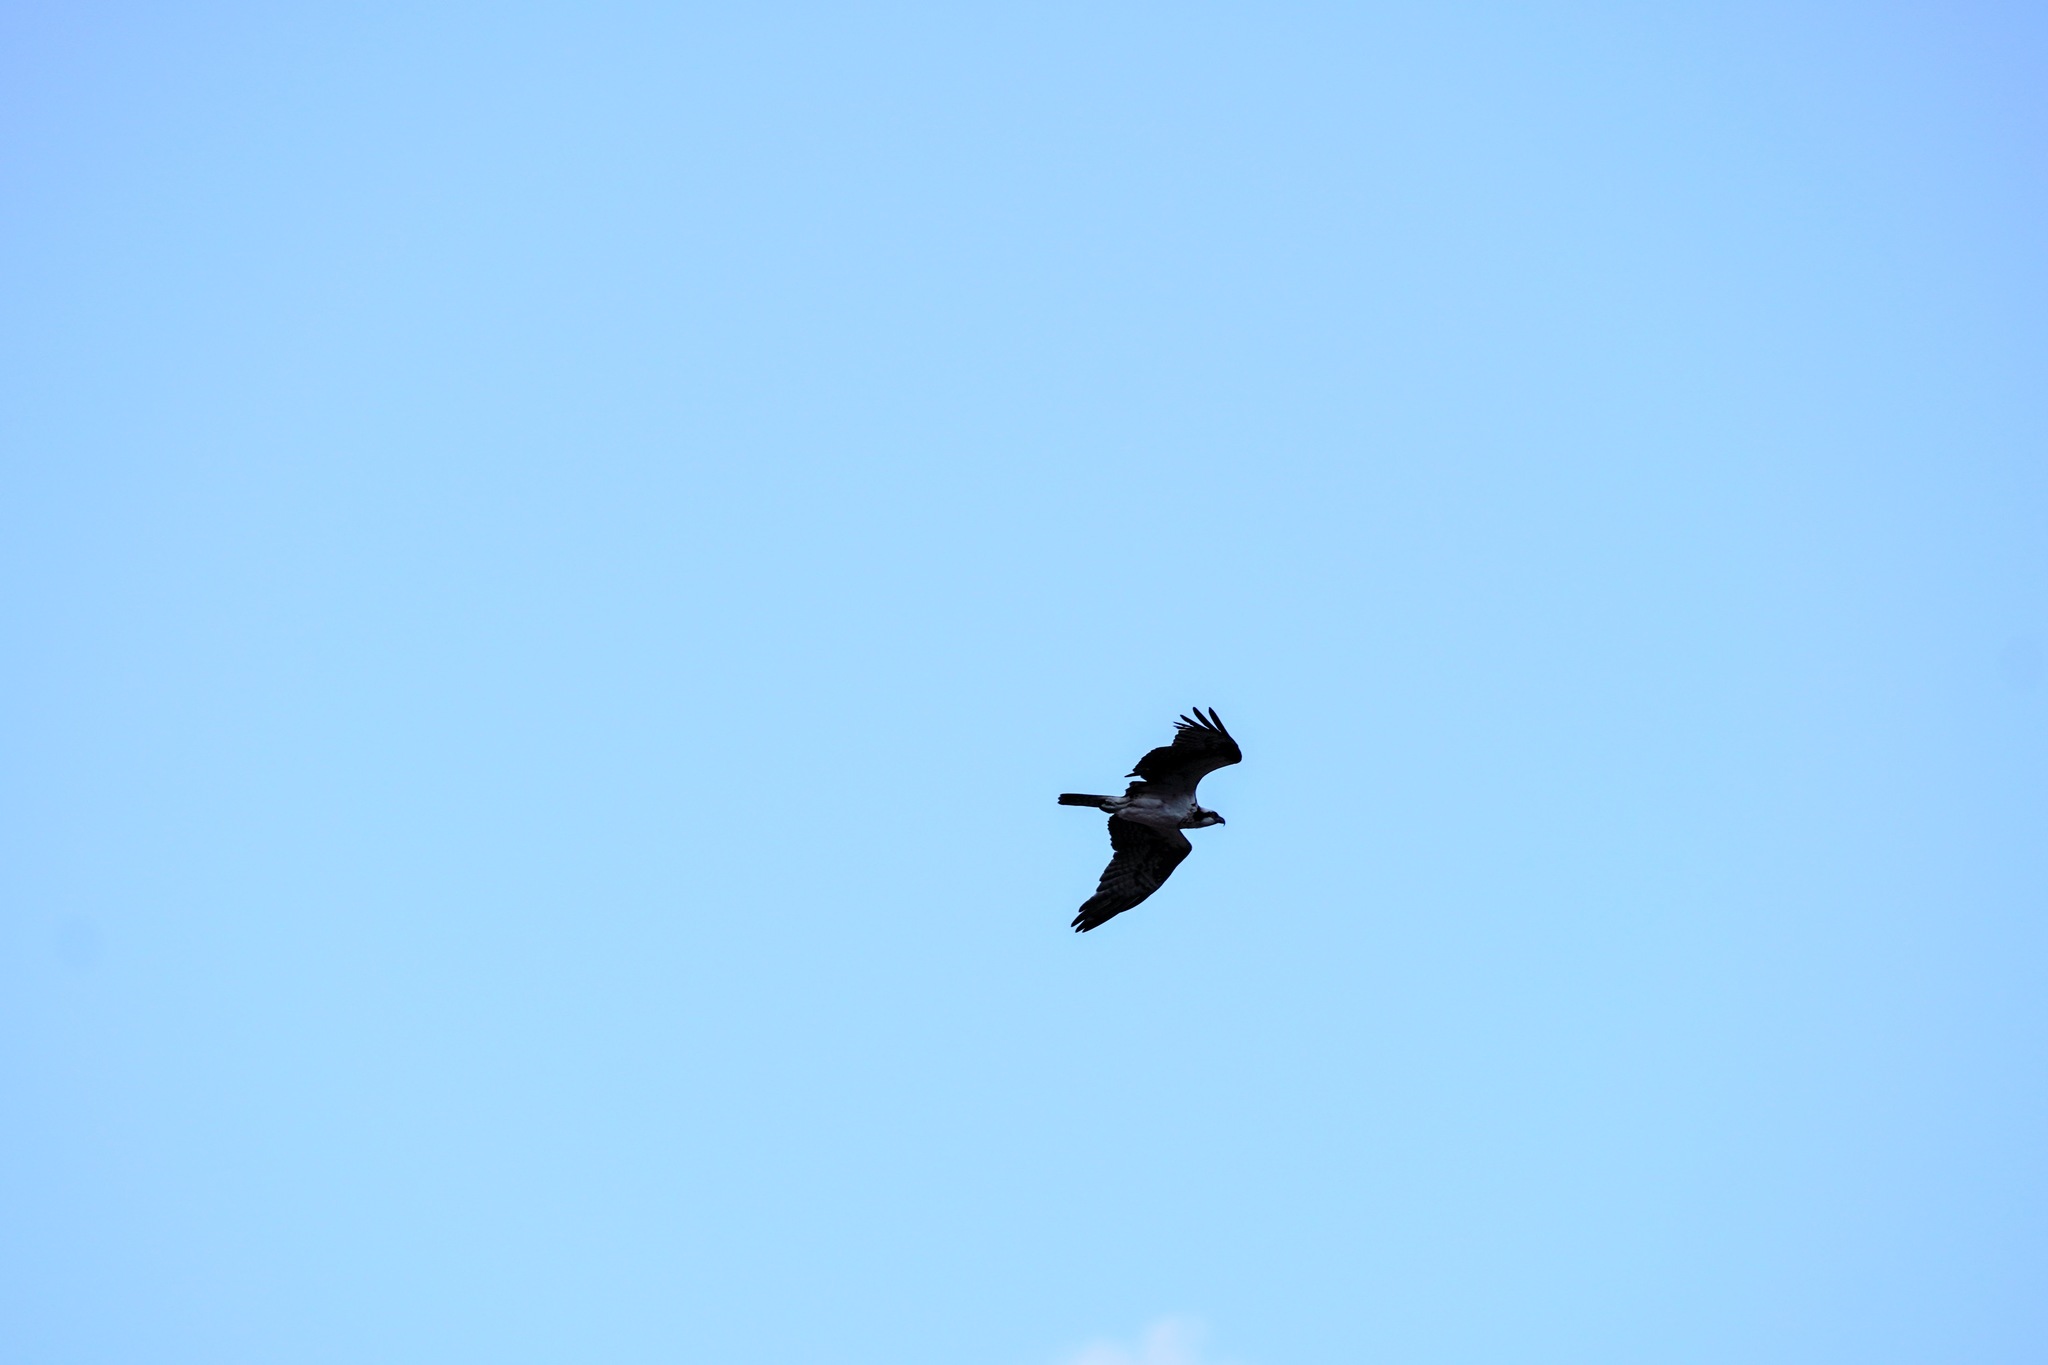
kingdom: Animalia
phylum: Chordata
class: Aves
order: Accipitriformes
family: Pandionidae
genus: Pandion
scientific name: Pandion haliaetus
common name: Osprey
